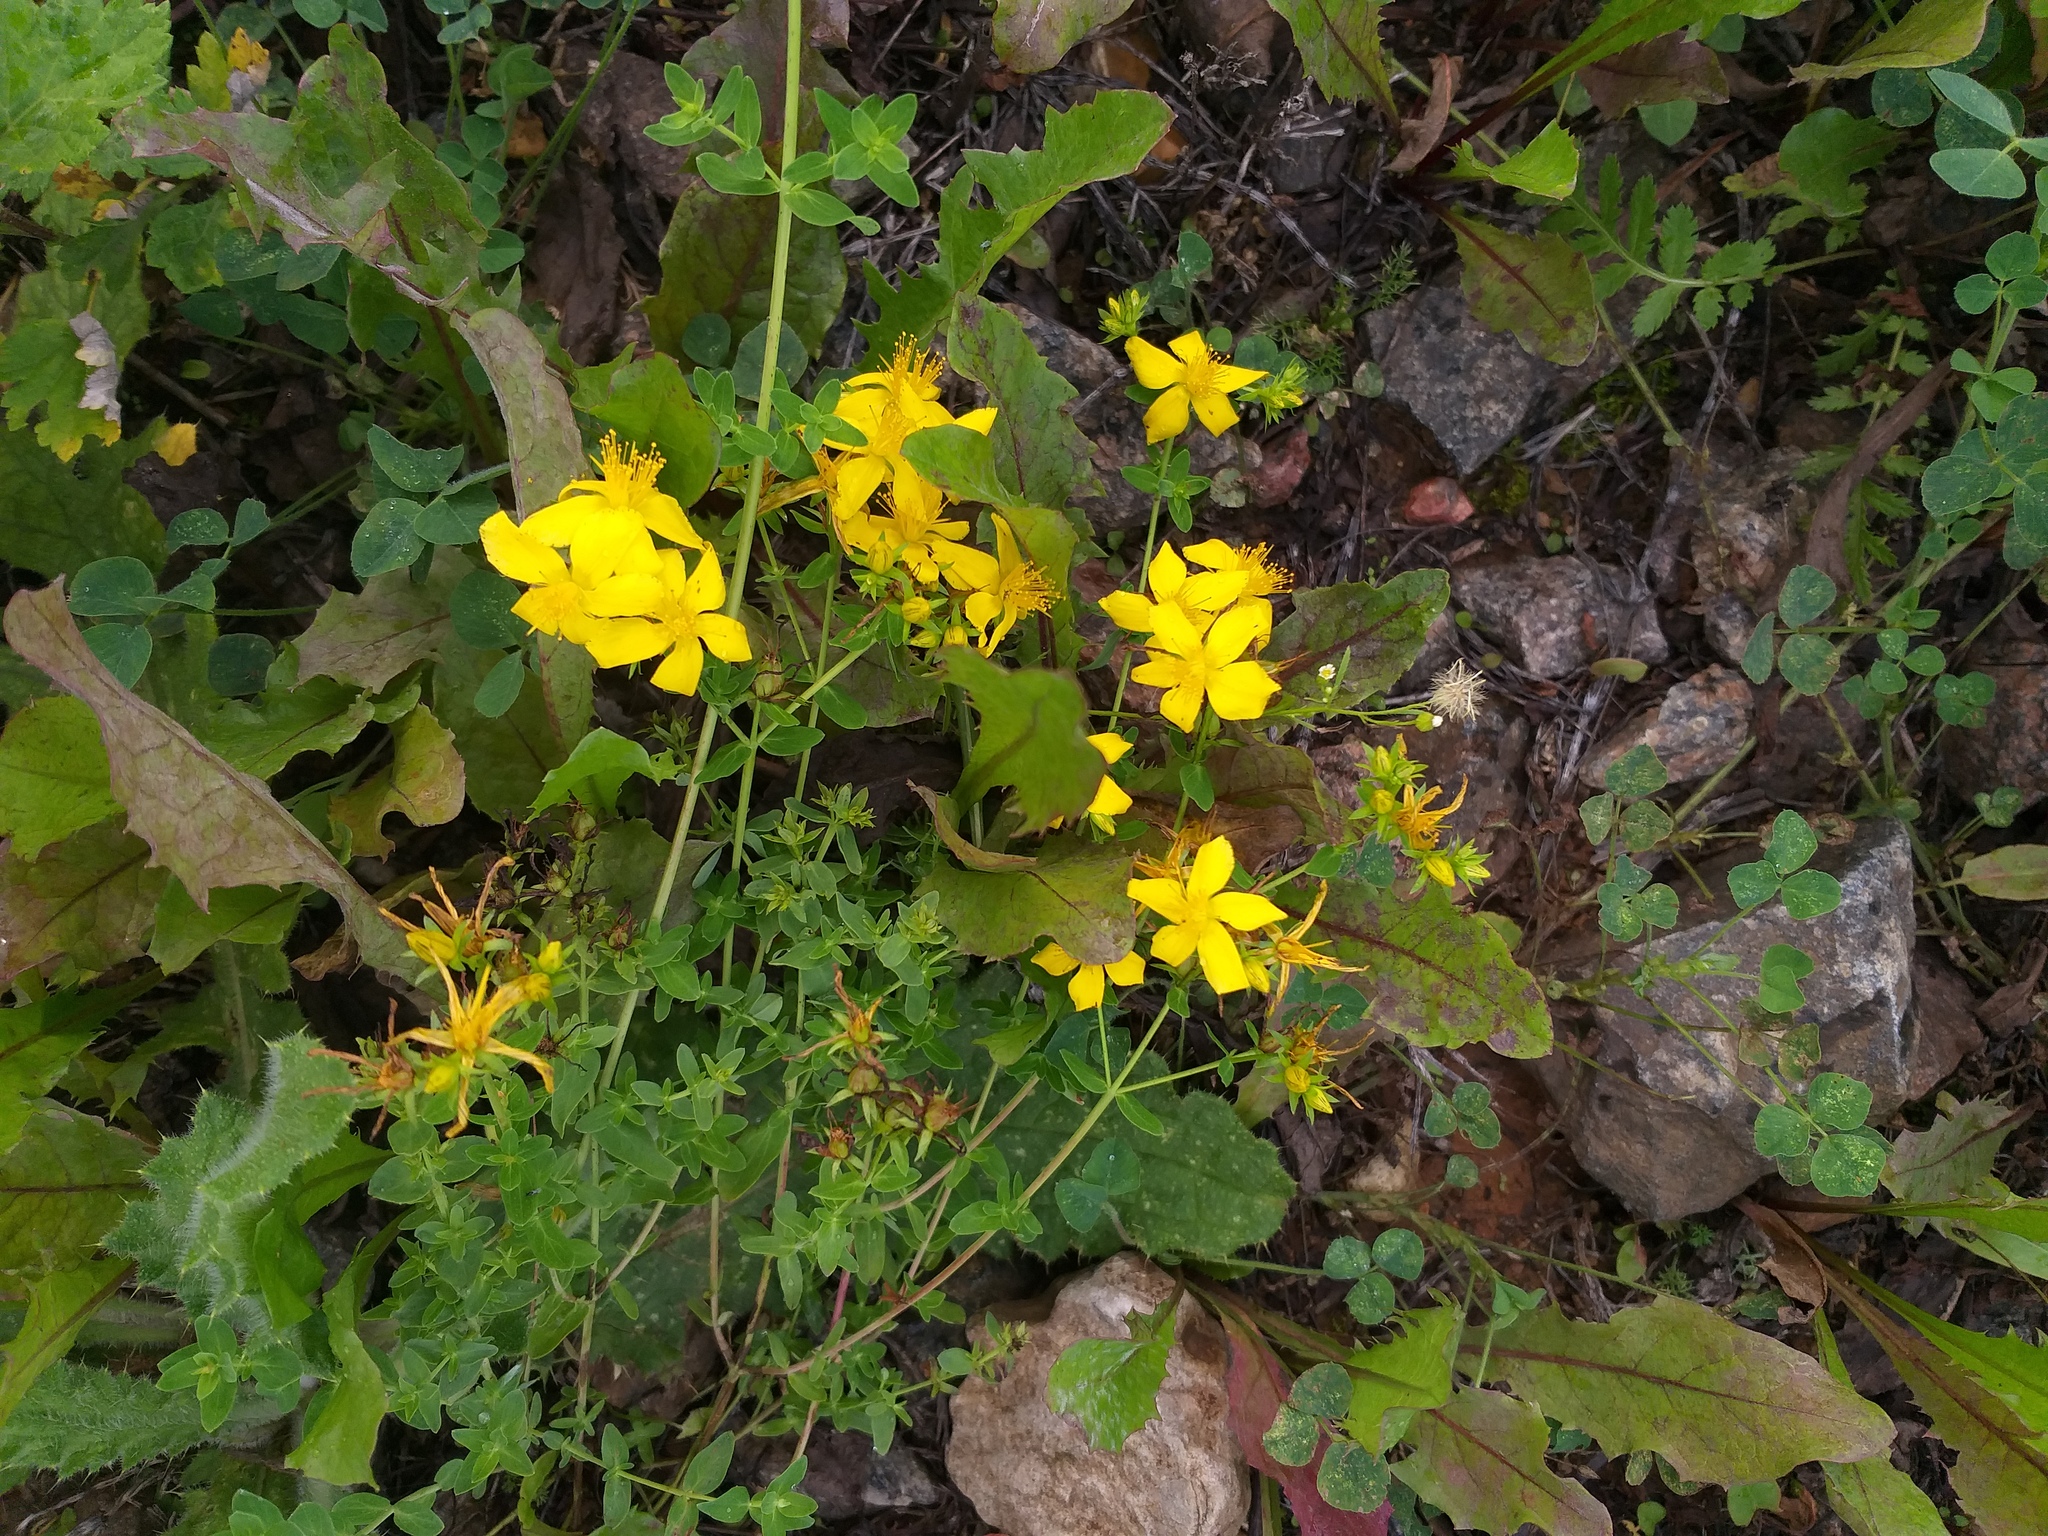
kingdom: Plantae
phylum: Tracheophyta
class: Magnoliopsida
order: Malpighiales
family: Hypericaceae
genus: Hypericum
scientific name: Hypericum perforatum
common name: Common st. johnswort
